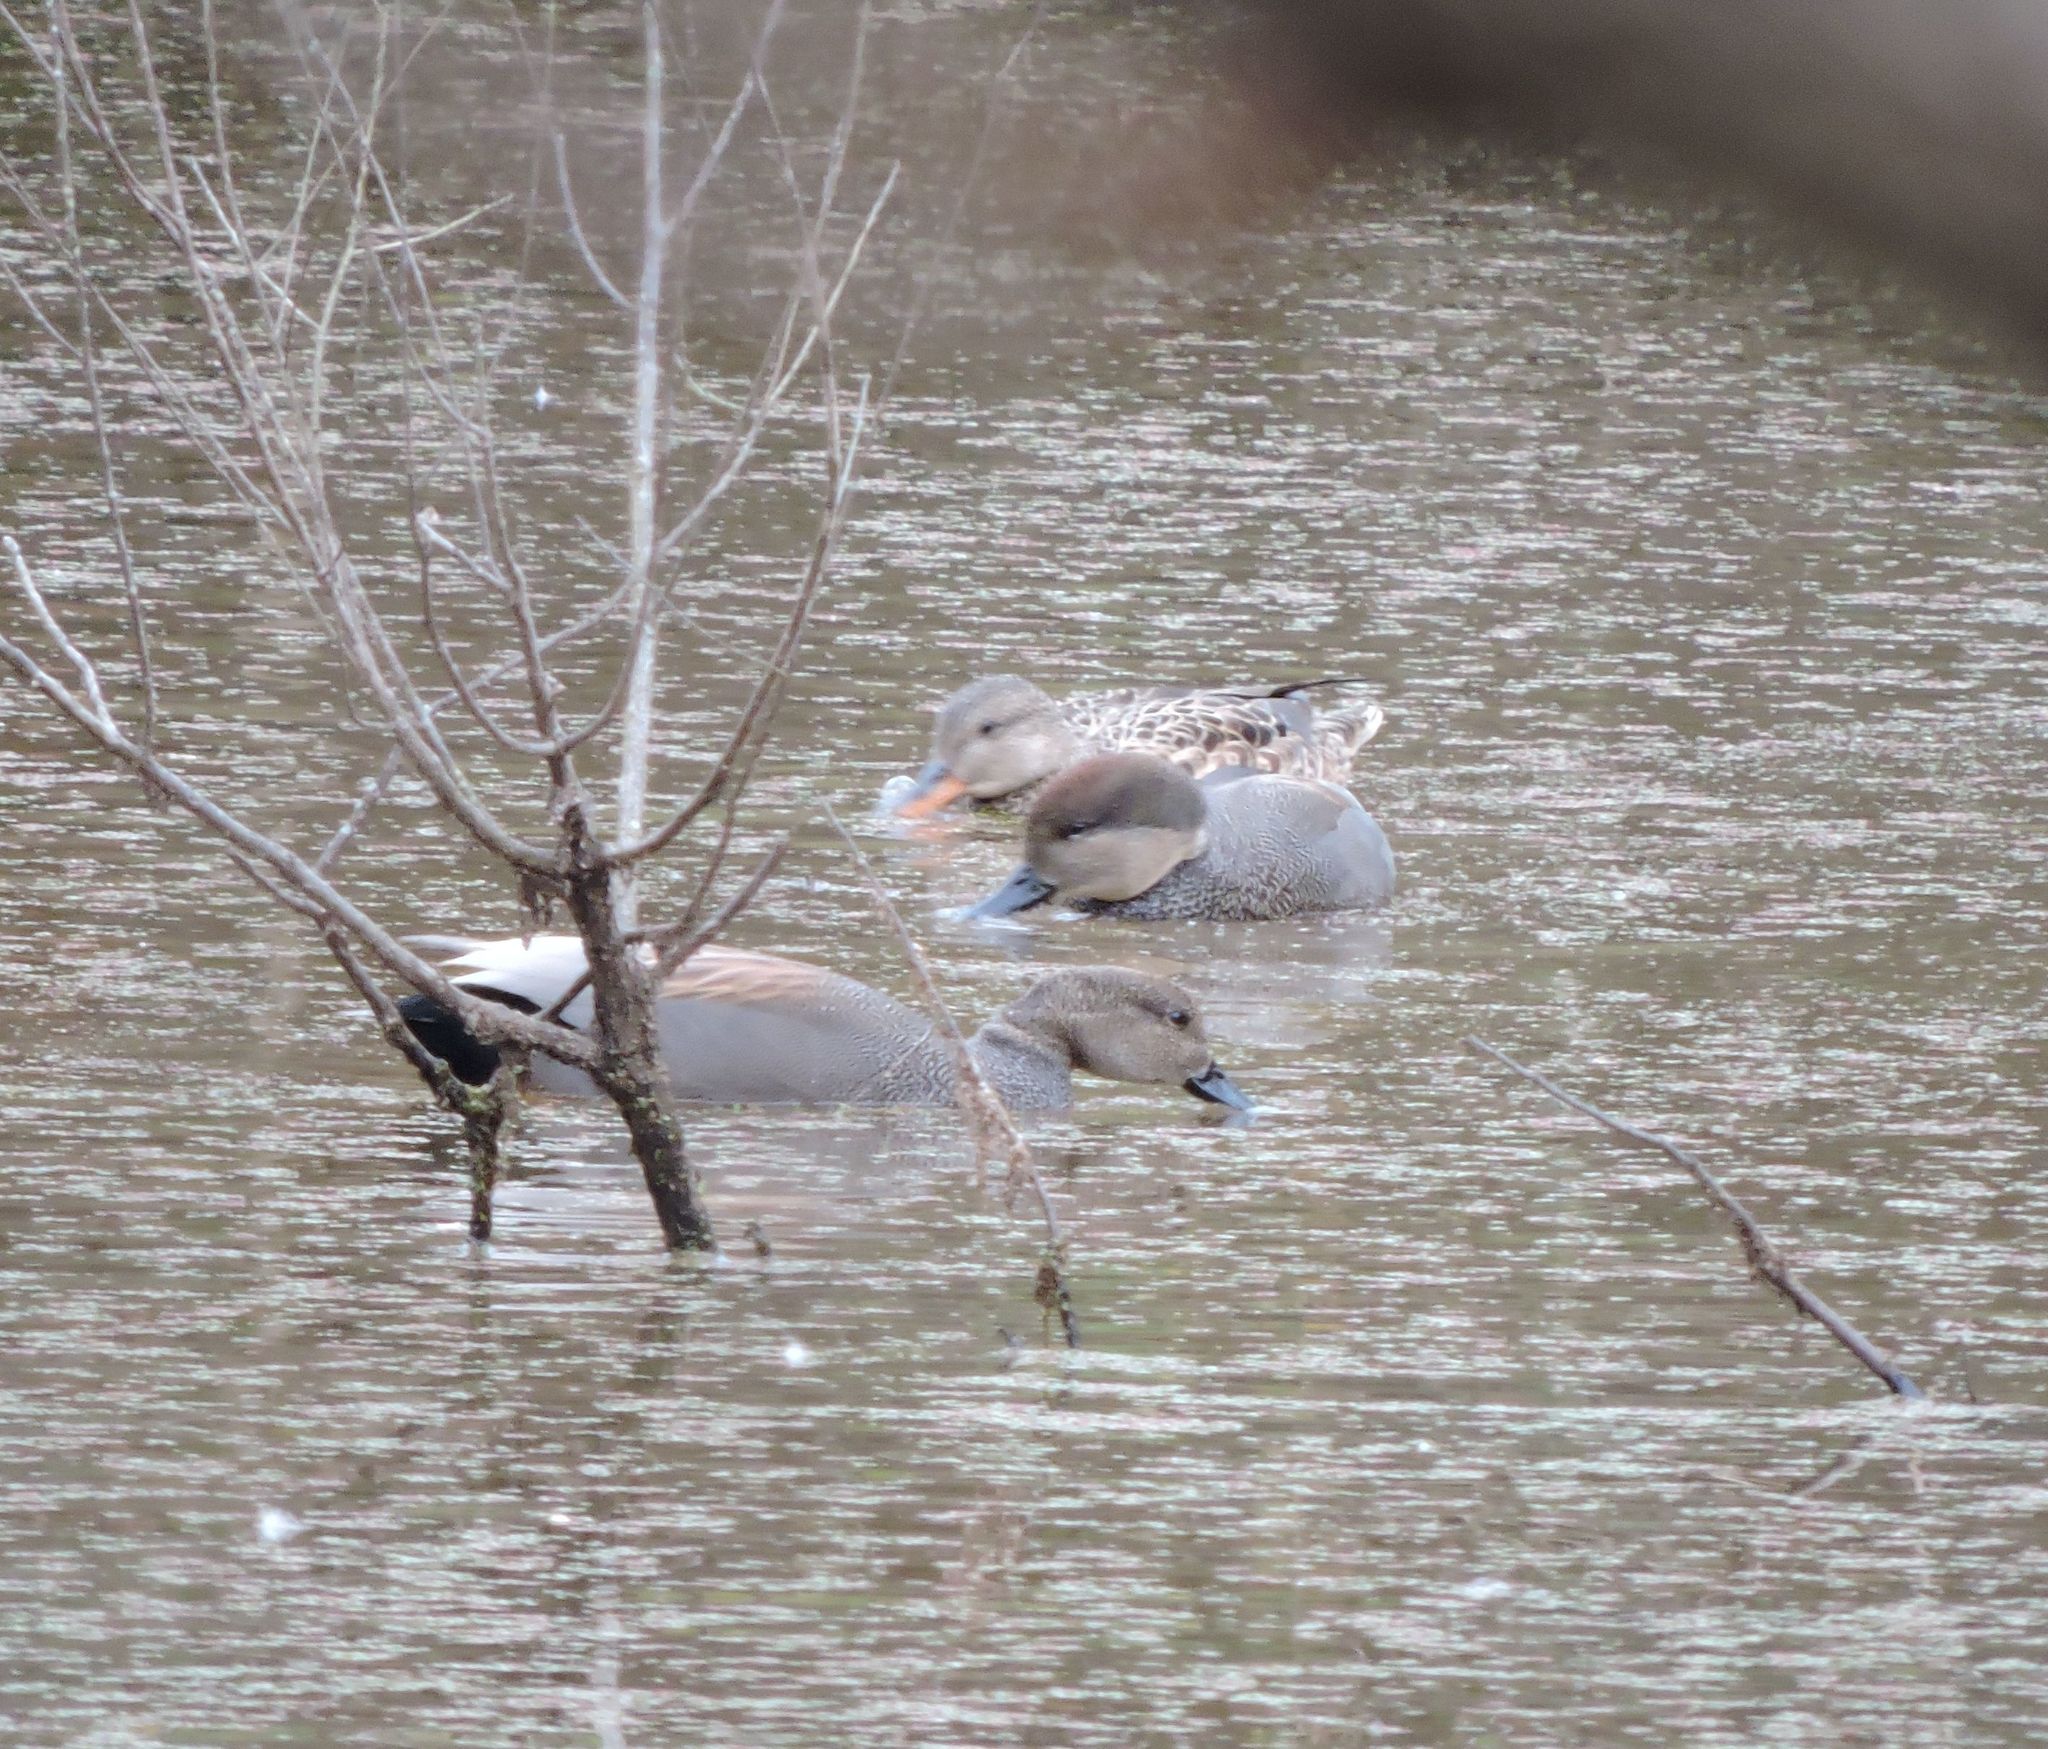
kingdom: Animalia
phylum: Chordata
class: Aves
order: Anseriformes
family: Anatidae
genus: Mareca
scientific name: Mareca strepera
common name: Gadwall
